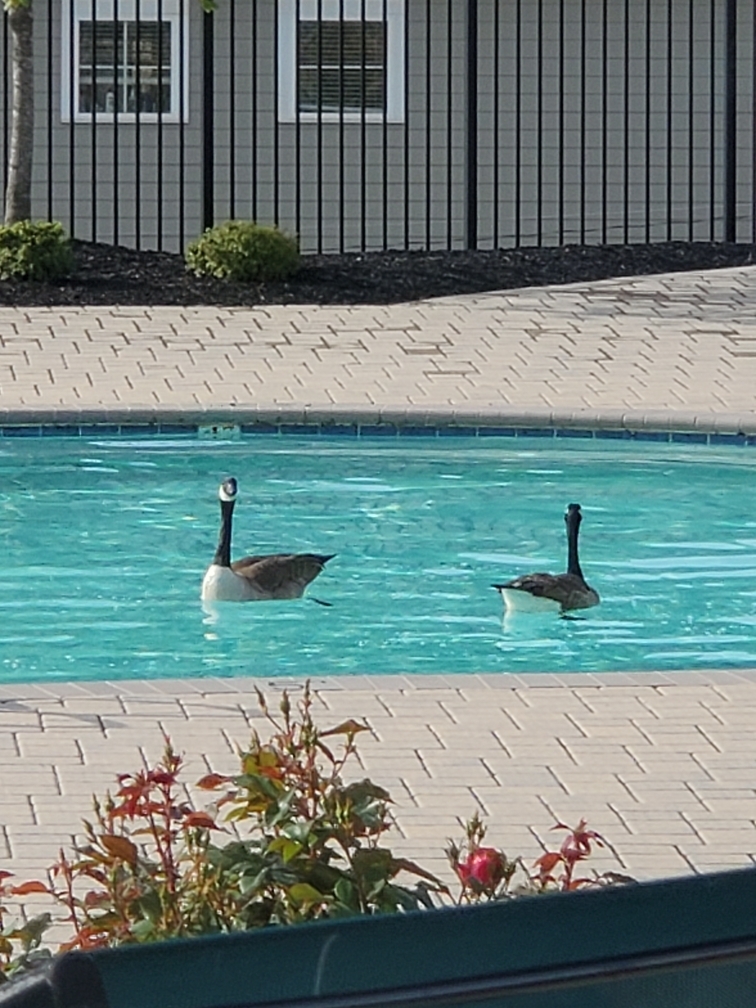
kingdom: Animalia
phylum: Chordata
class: Aves
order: Anseriformes
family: Anatidae
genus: Branta
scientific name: Branta canadensis
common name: Canada goose
